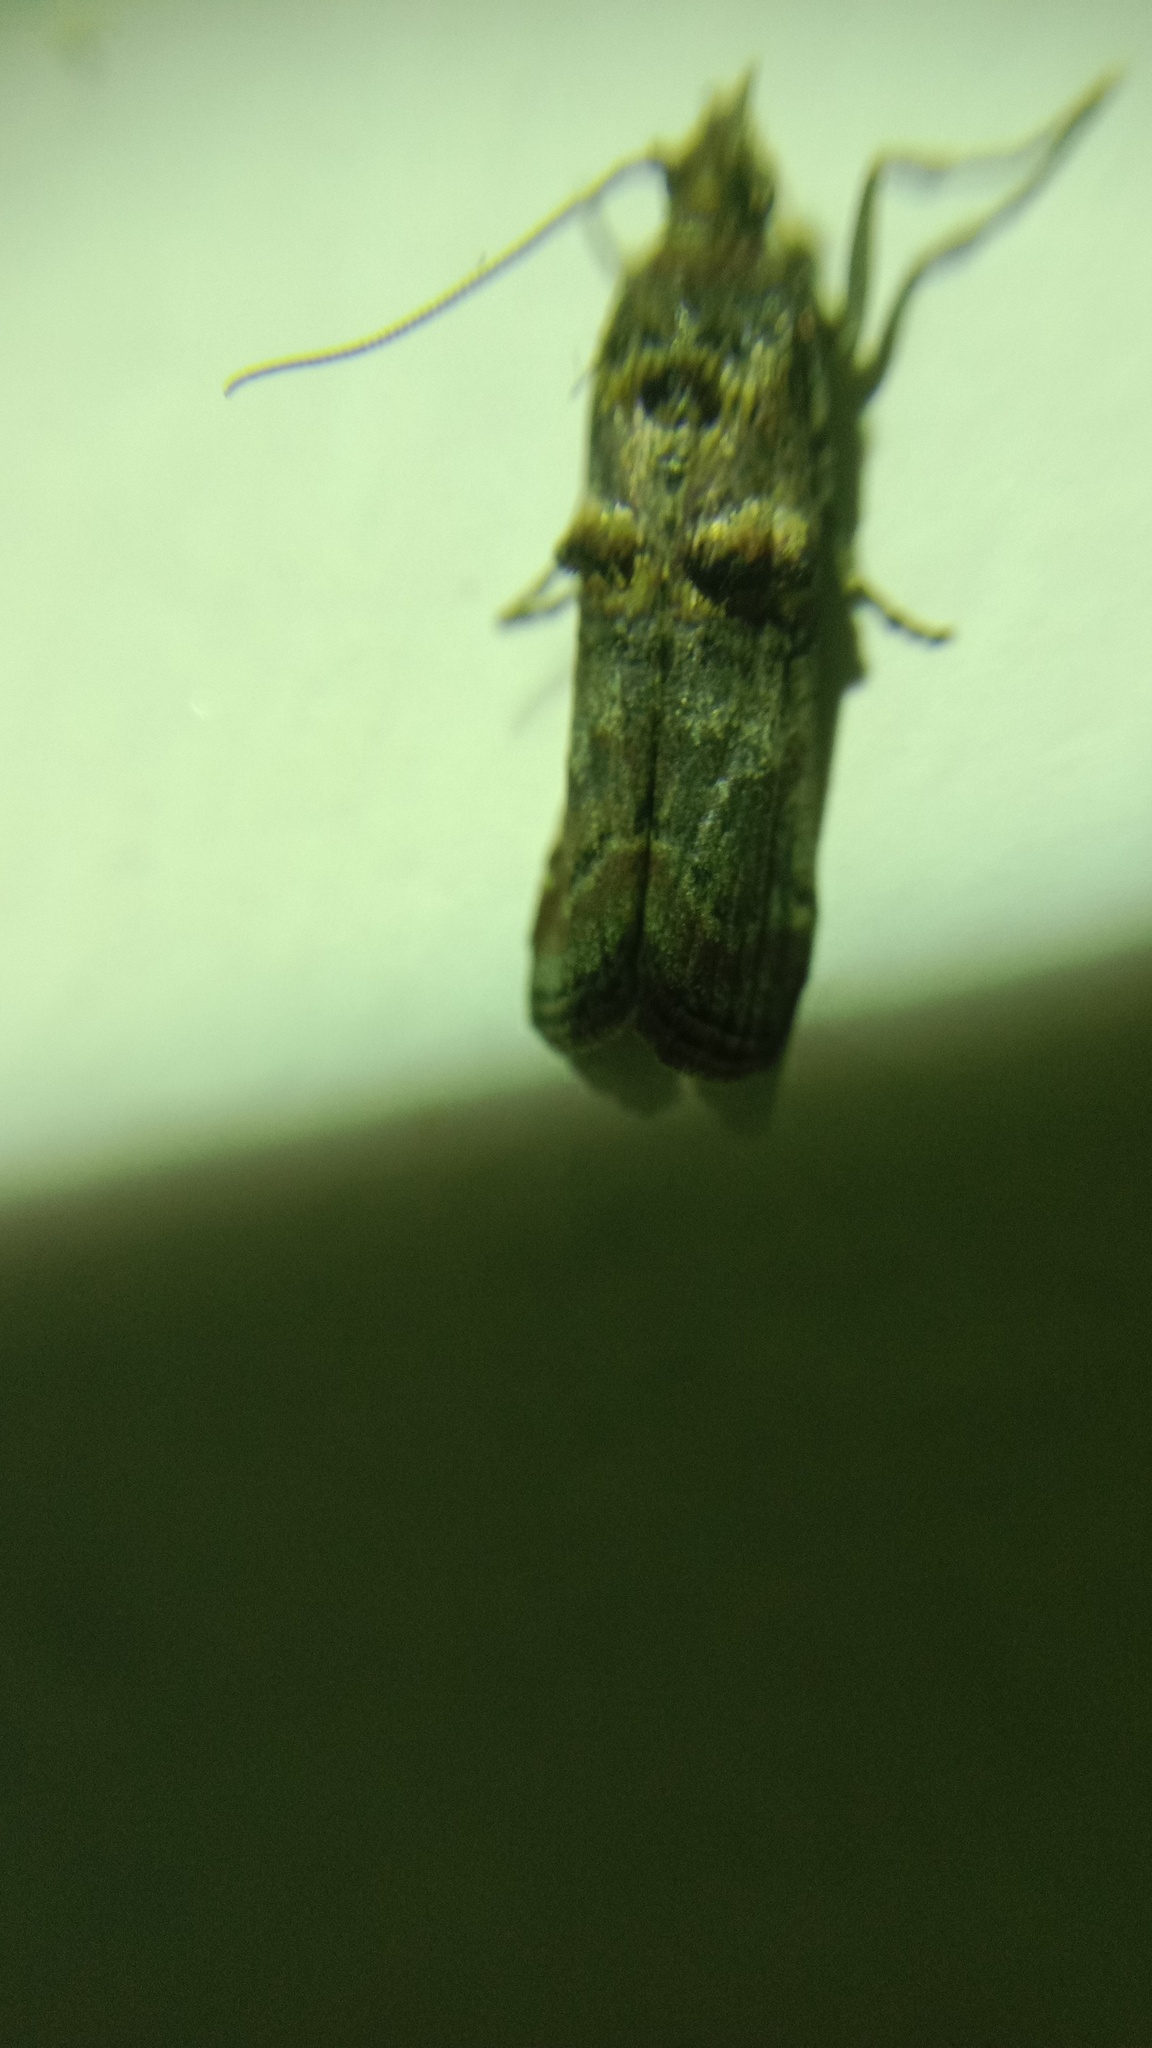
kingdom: Animalia
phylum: Arthropoda
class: Insecta
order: Lepidoptera
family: Pyralidae
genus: Trachonitis
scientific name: Trachonitis cristella
